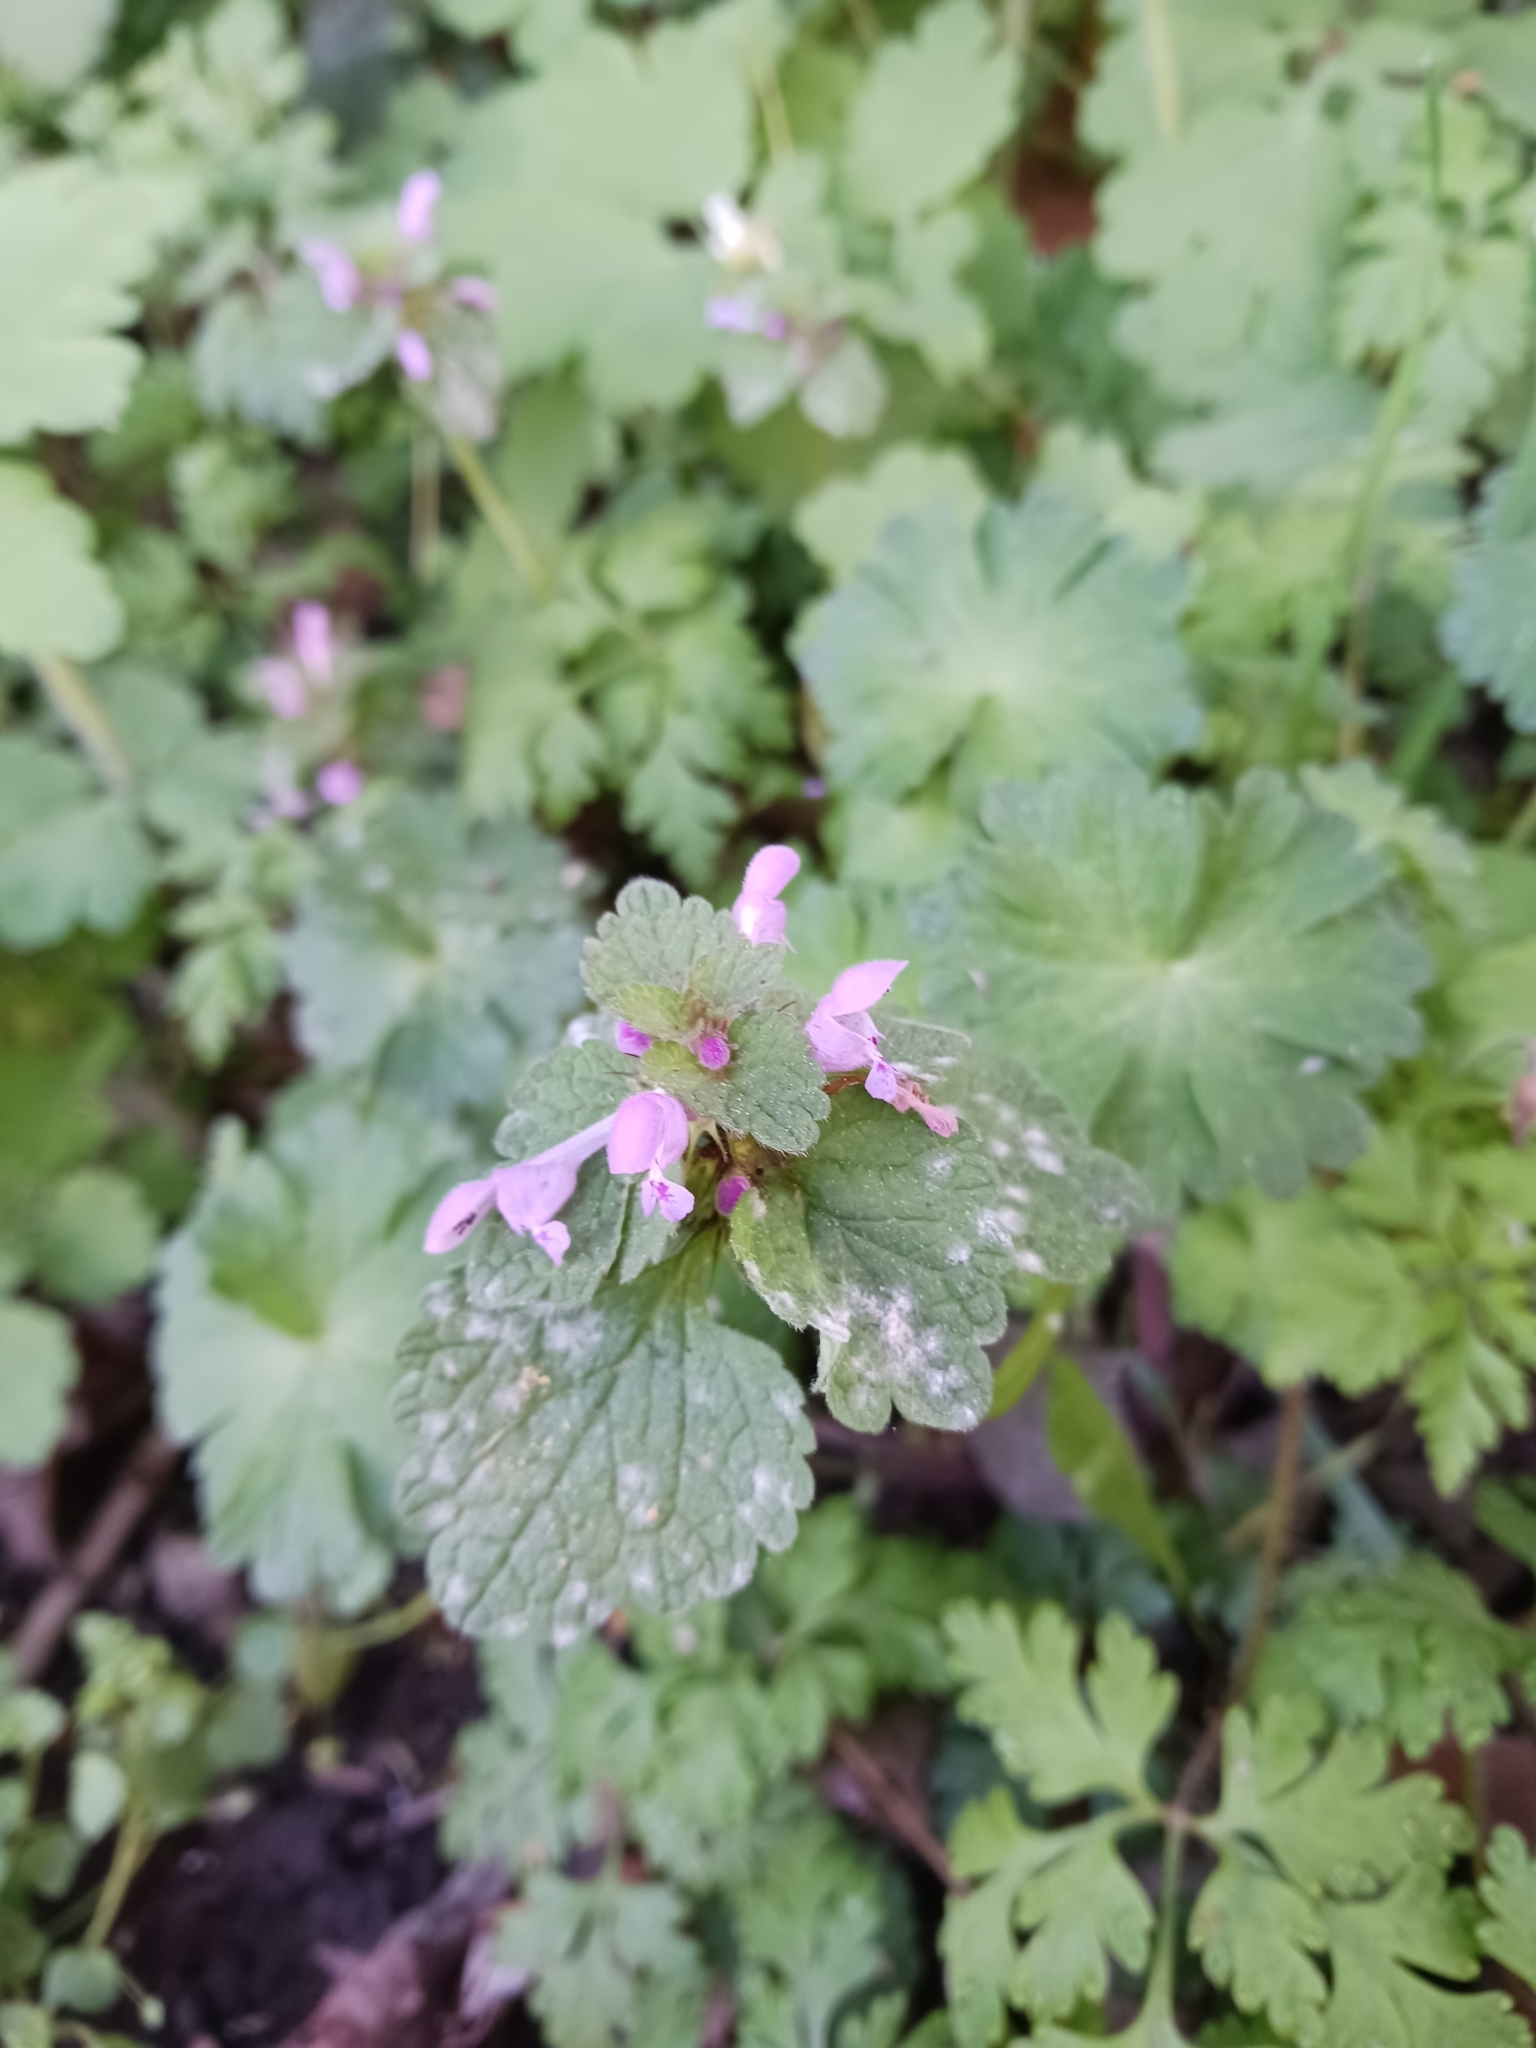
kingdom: Plantae
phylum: Tracheophyta
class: Magnoliopsida
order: Lamiales
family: Lamiaceae
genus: Lamium
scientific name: Lamium purpureum
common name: Red dead-nettle
